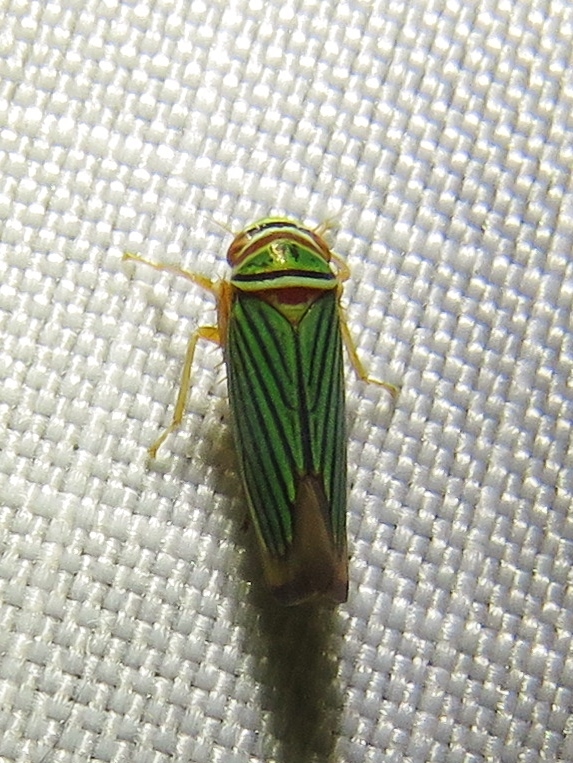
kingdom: Animalia
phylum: Arthropoda
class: Insecta
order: Hemiptera
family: Cicadellidae
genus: Tylozygus
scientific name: Tylozygus fuscolineellus
